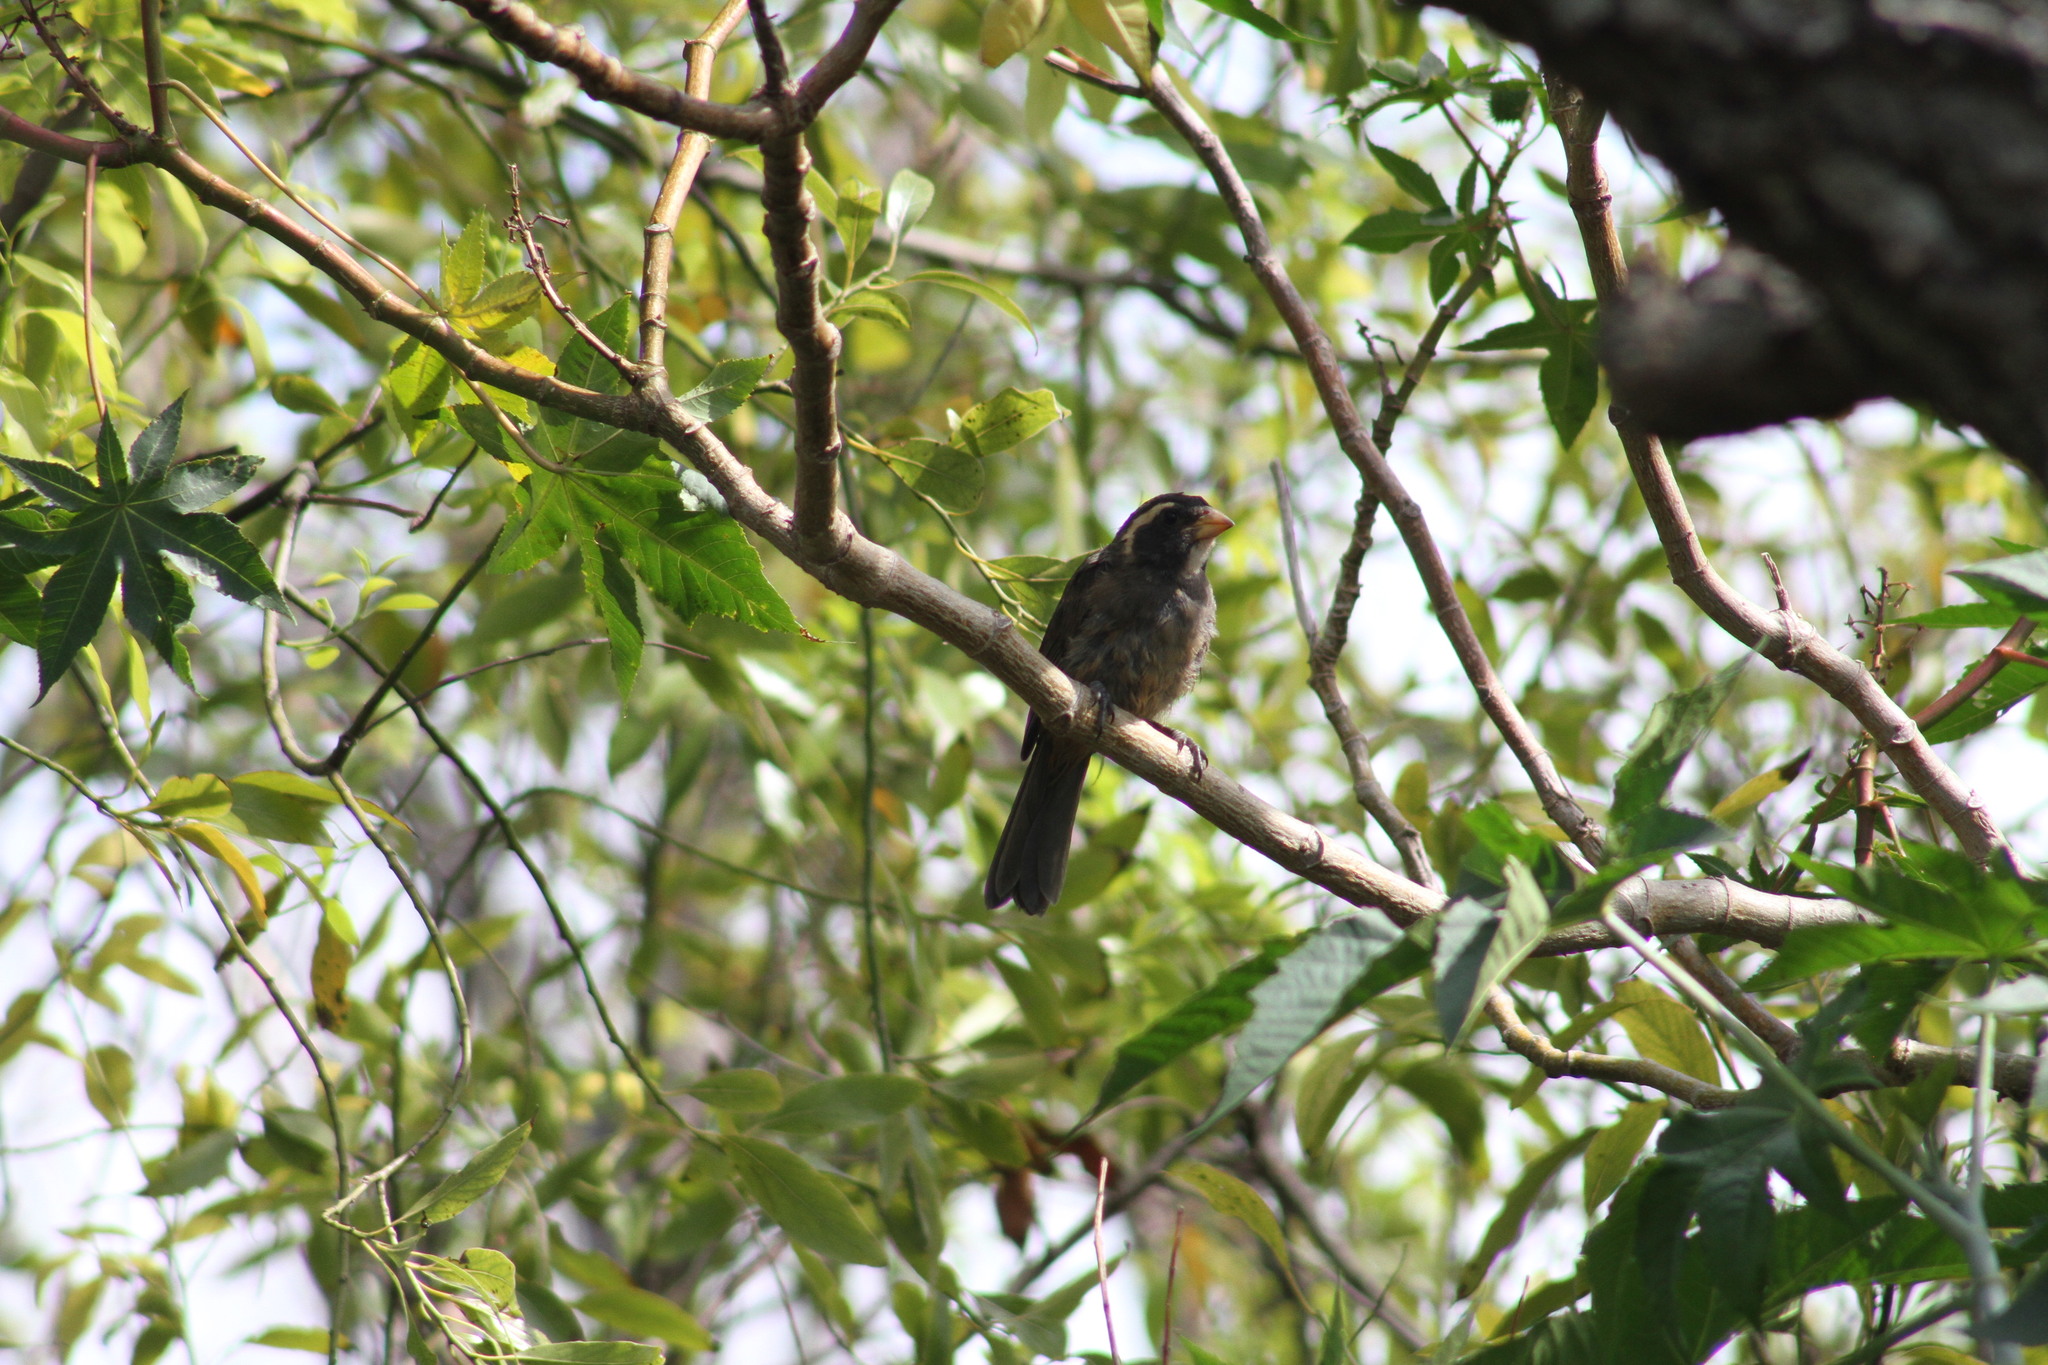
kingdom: Animalia
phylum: Chordata
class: Aves
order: Passeriformes
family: Thraupidae
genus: Saltator
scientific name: Saltator aurantiirostris
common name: Golden-billed saltator
